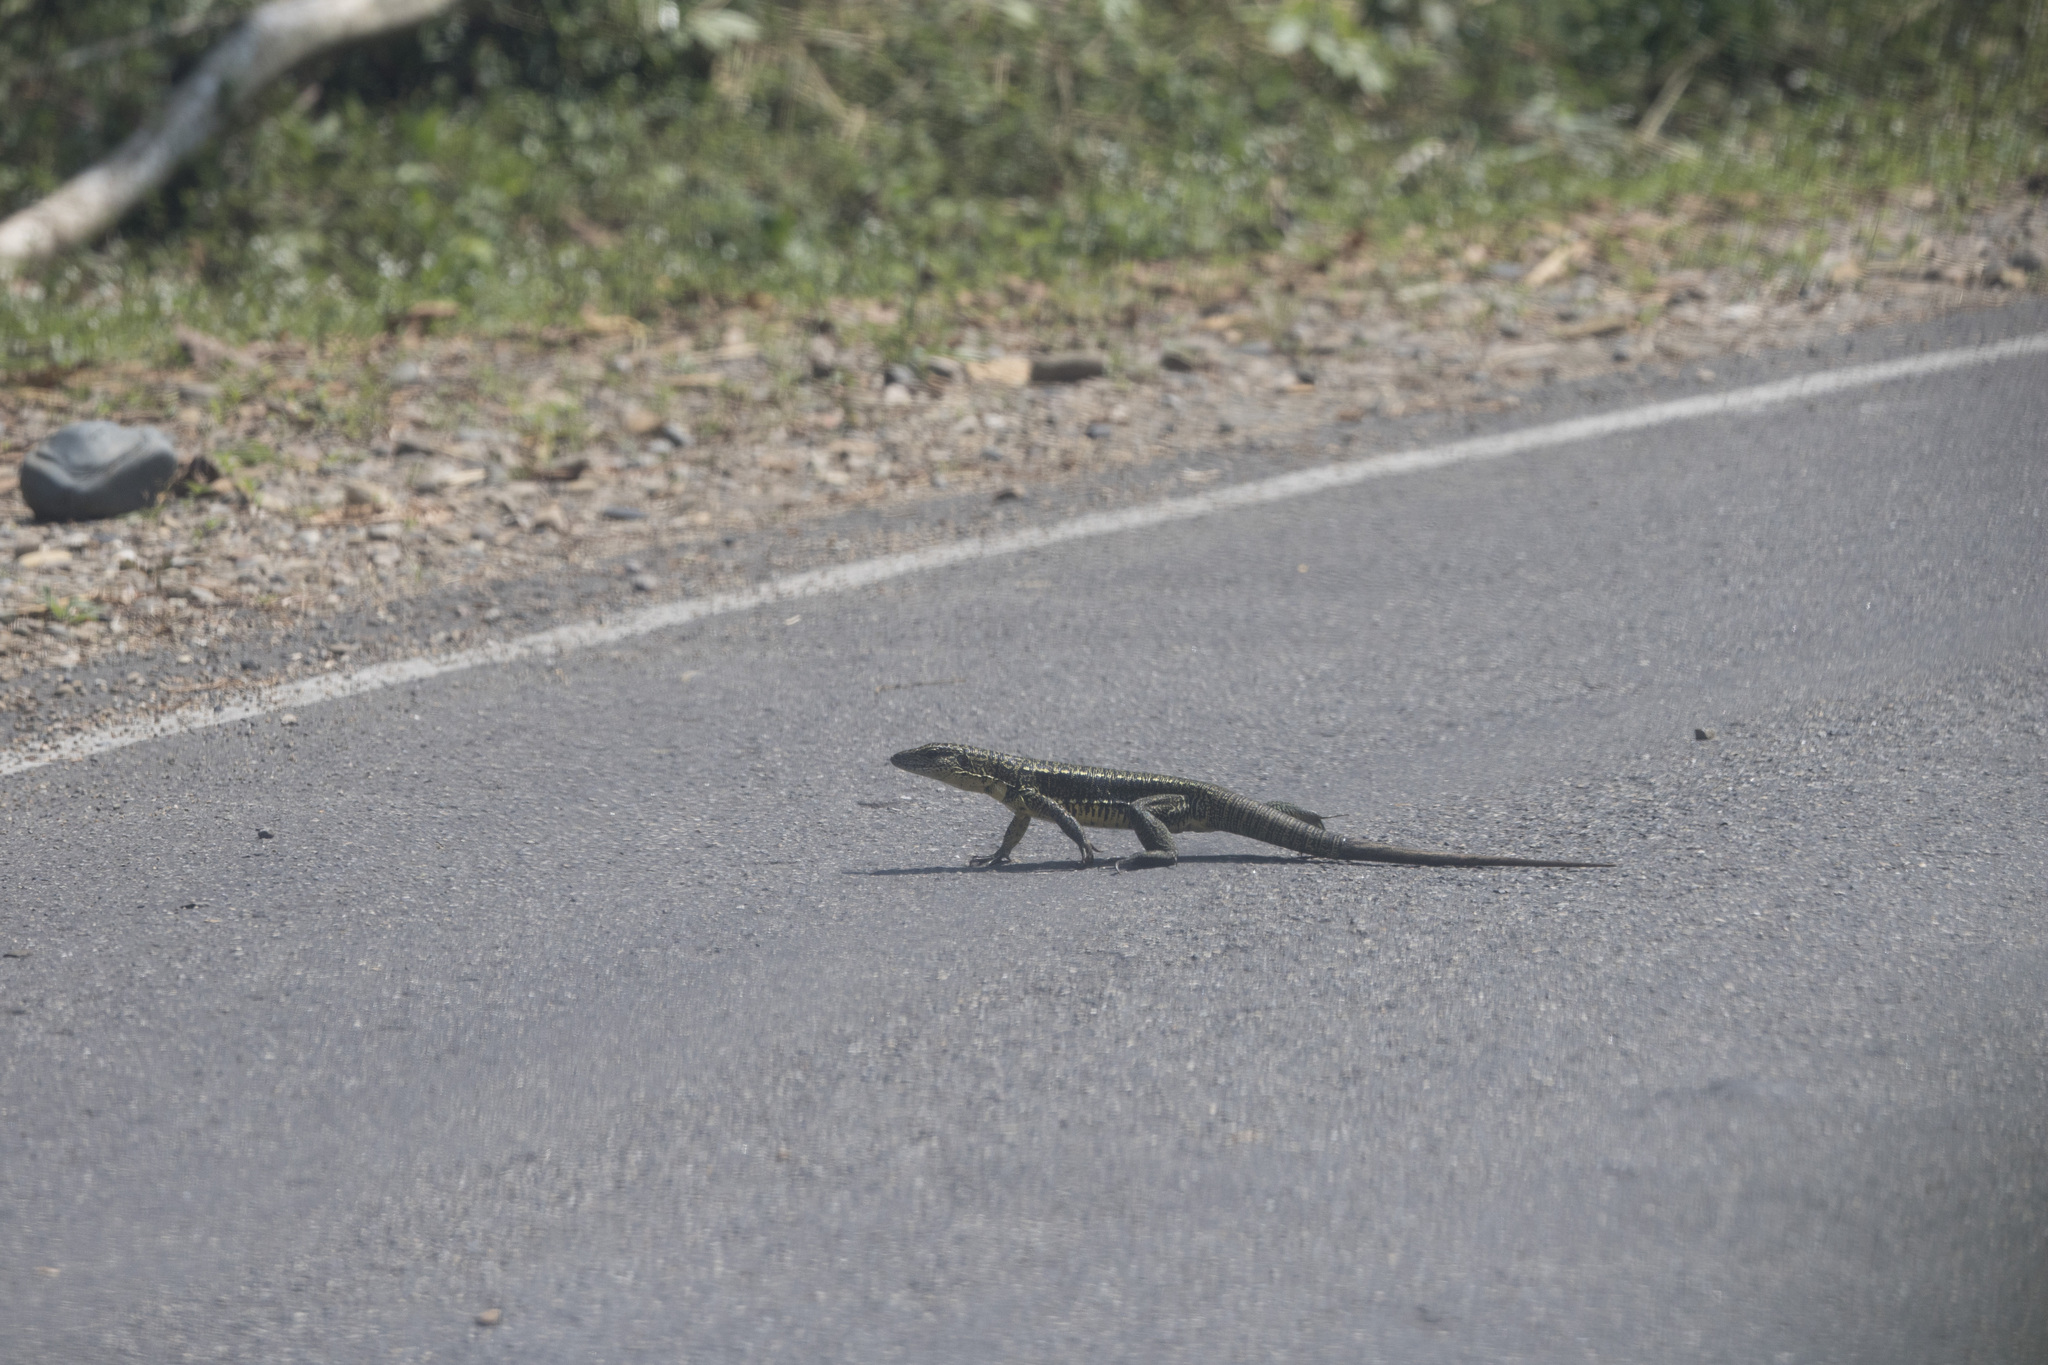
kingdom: Animalia
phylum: Chordata
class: Squamata
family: Teiidae
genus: Tupinambis
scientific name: Tupinambis cuzcoensis
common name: Cusco tegu lizard
